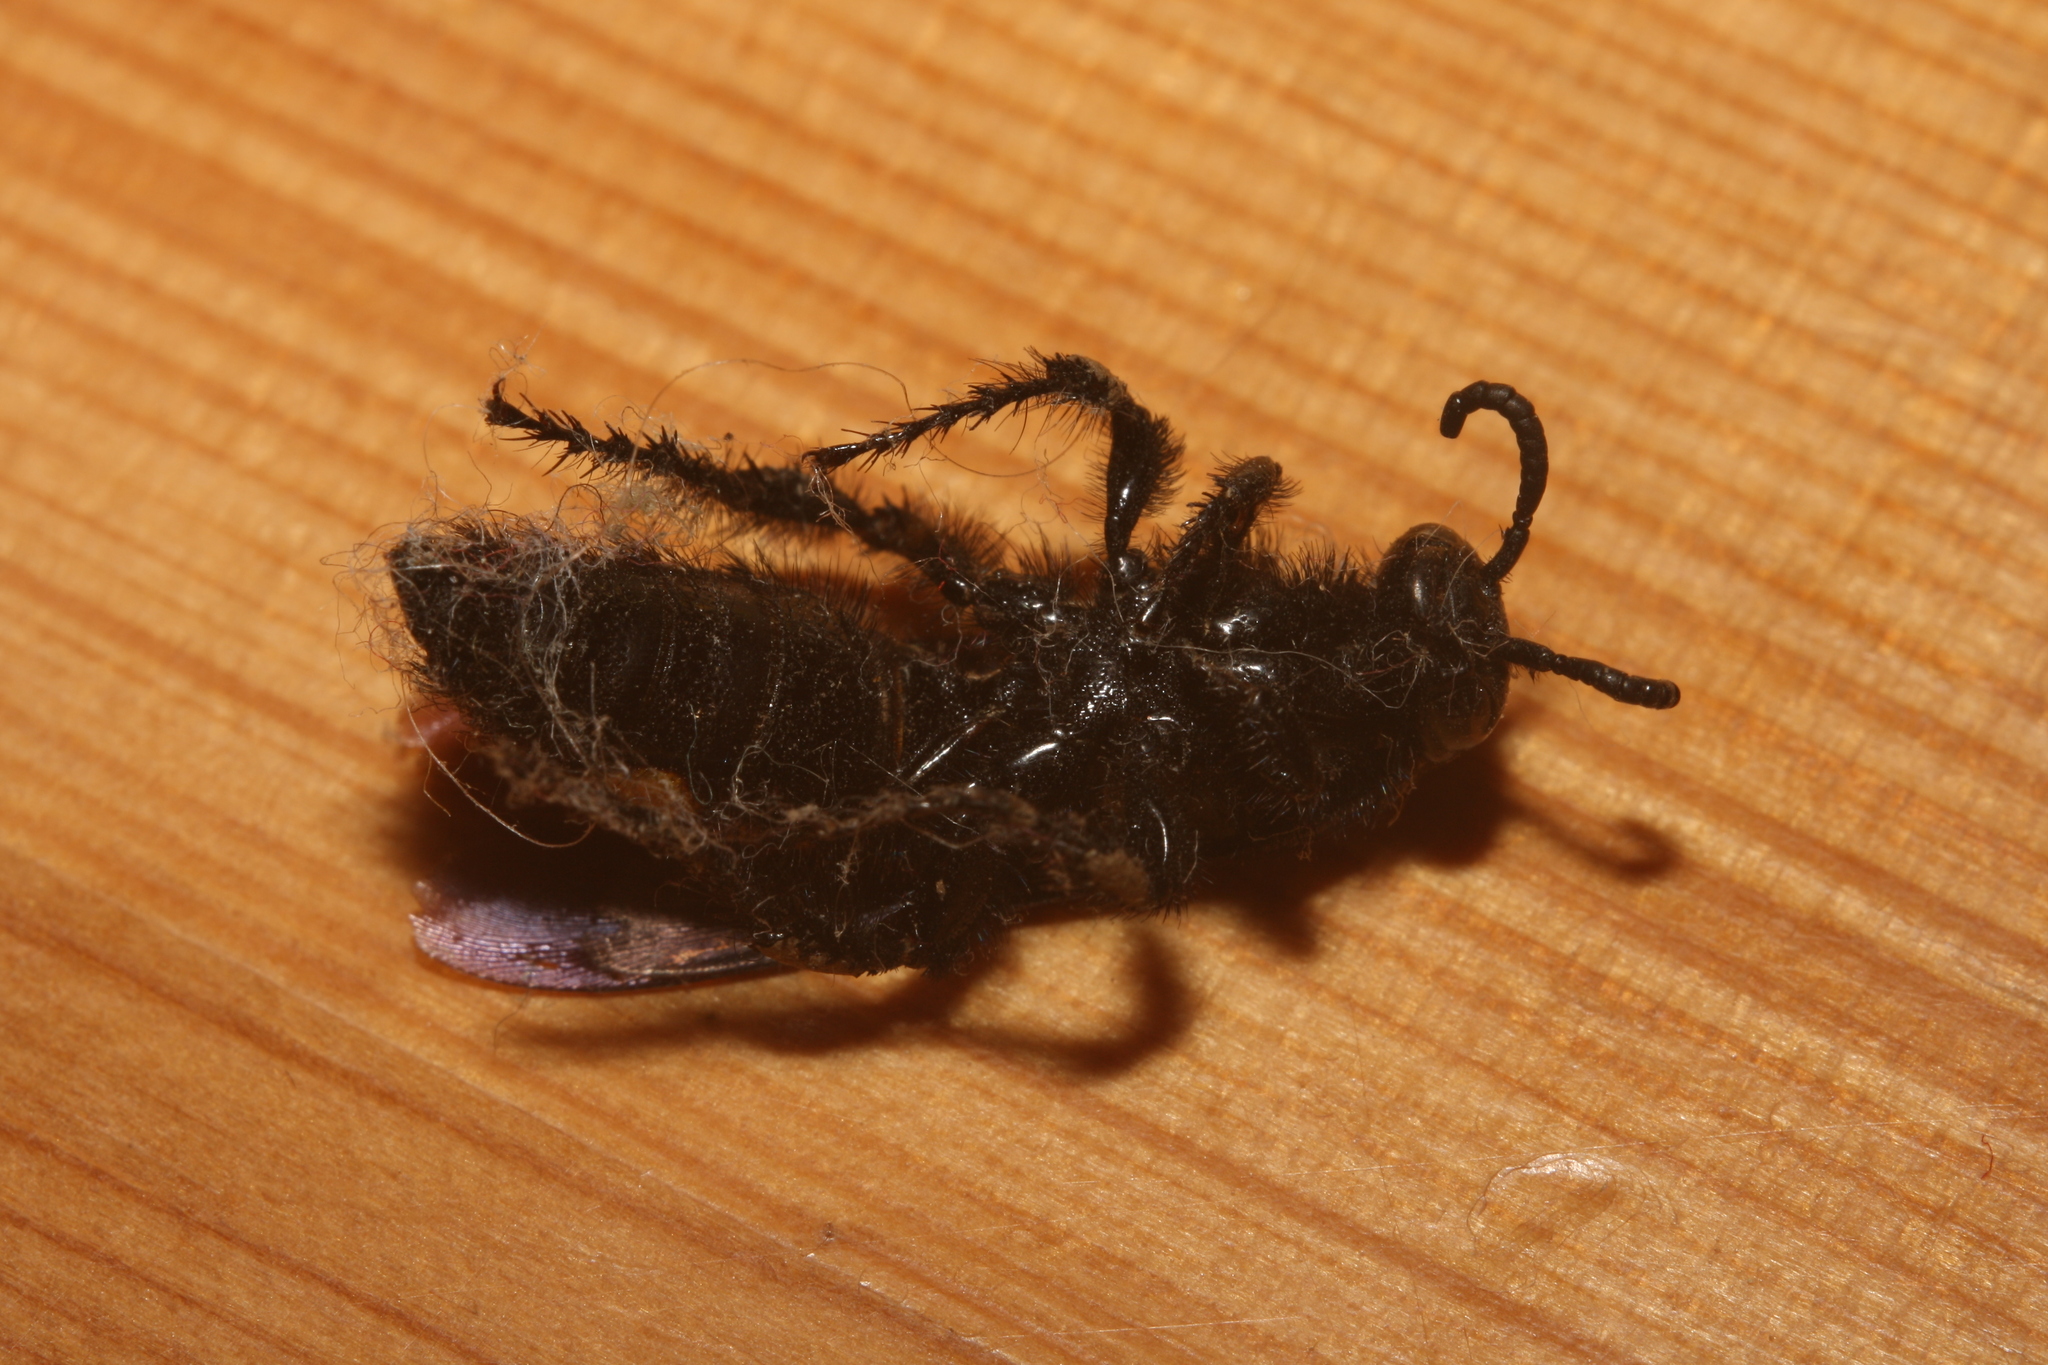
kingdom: Animalia
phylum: Arthropoda
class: Insecta
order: Hymenoptera
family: Scoliidae
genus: Scolia
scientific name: Scolia hirta
